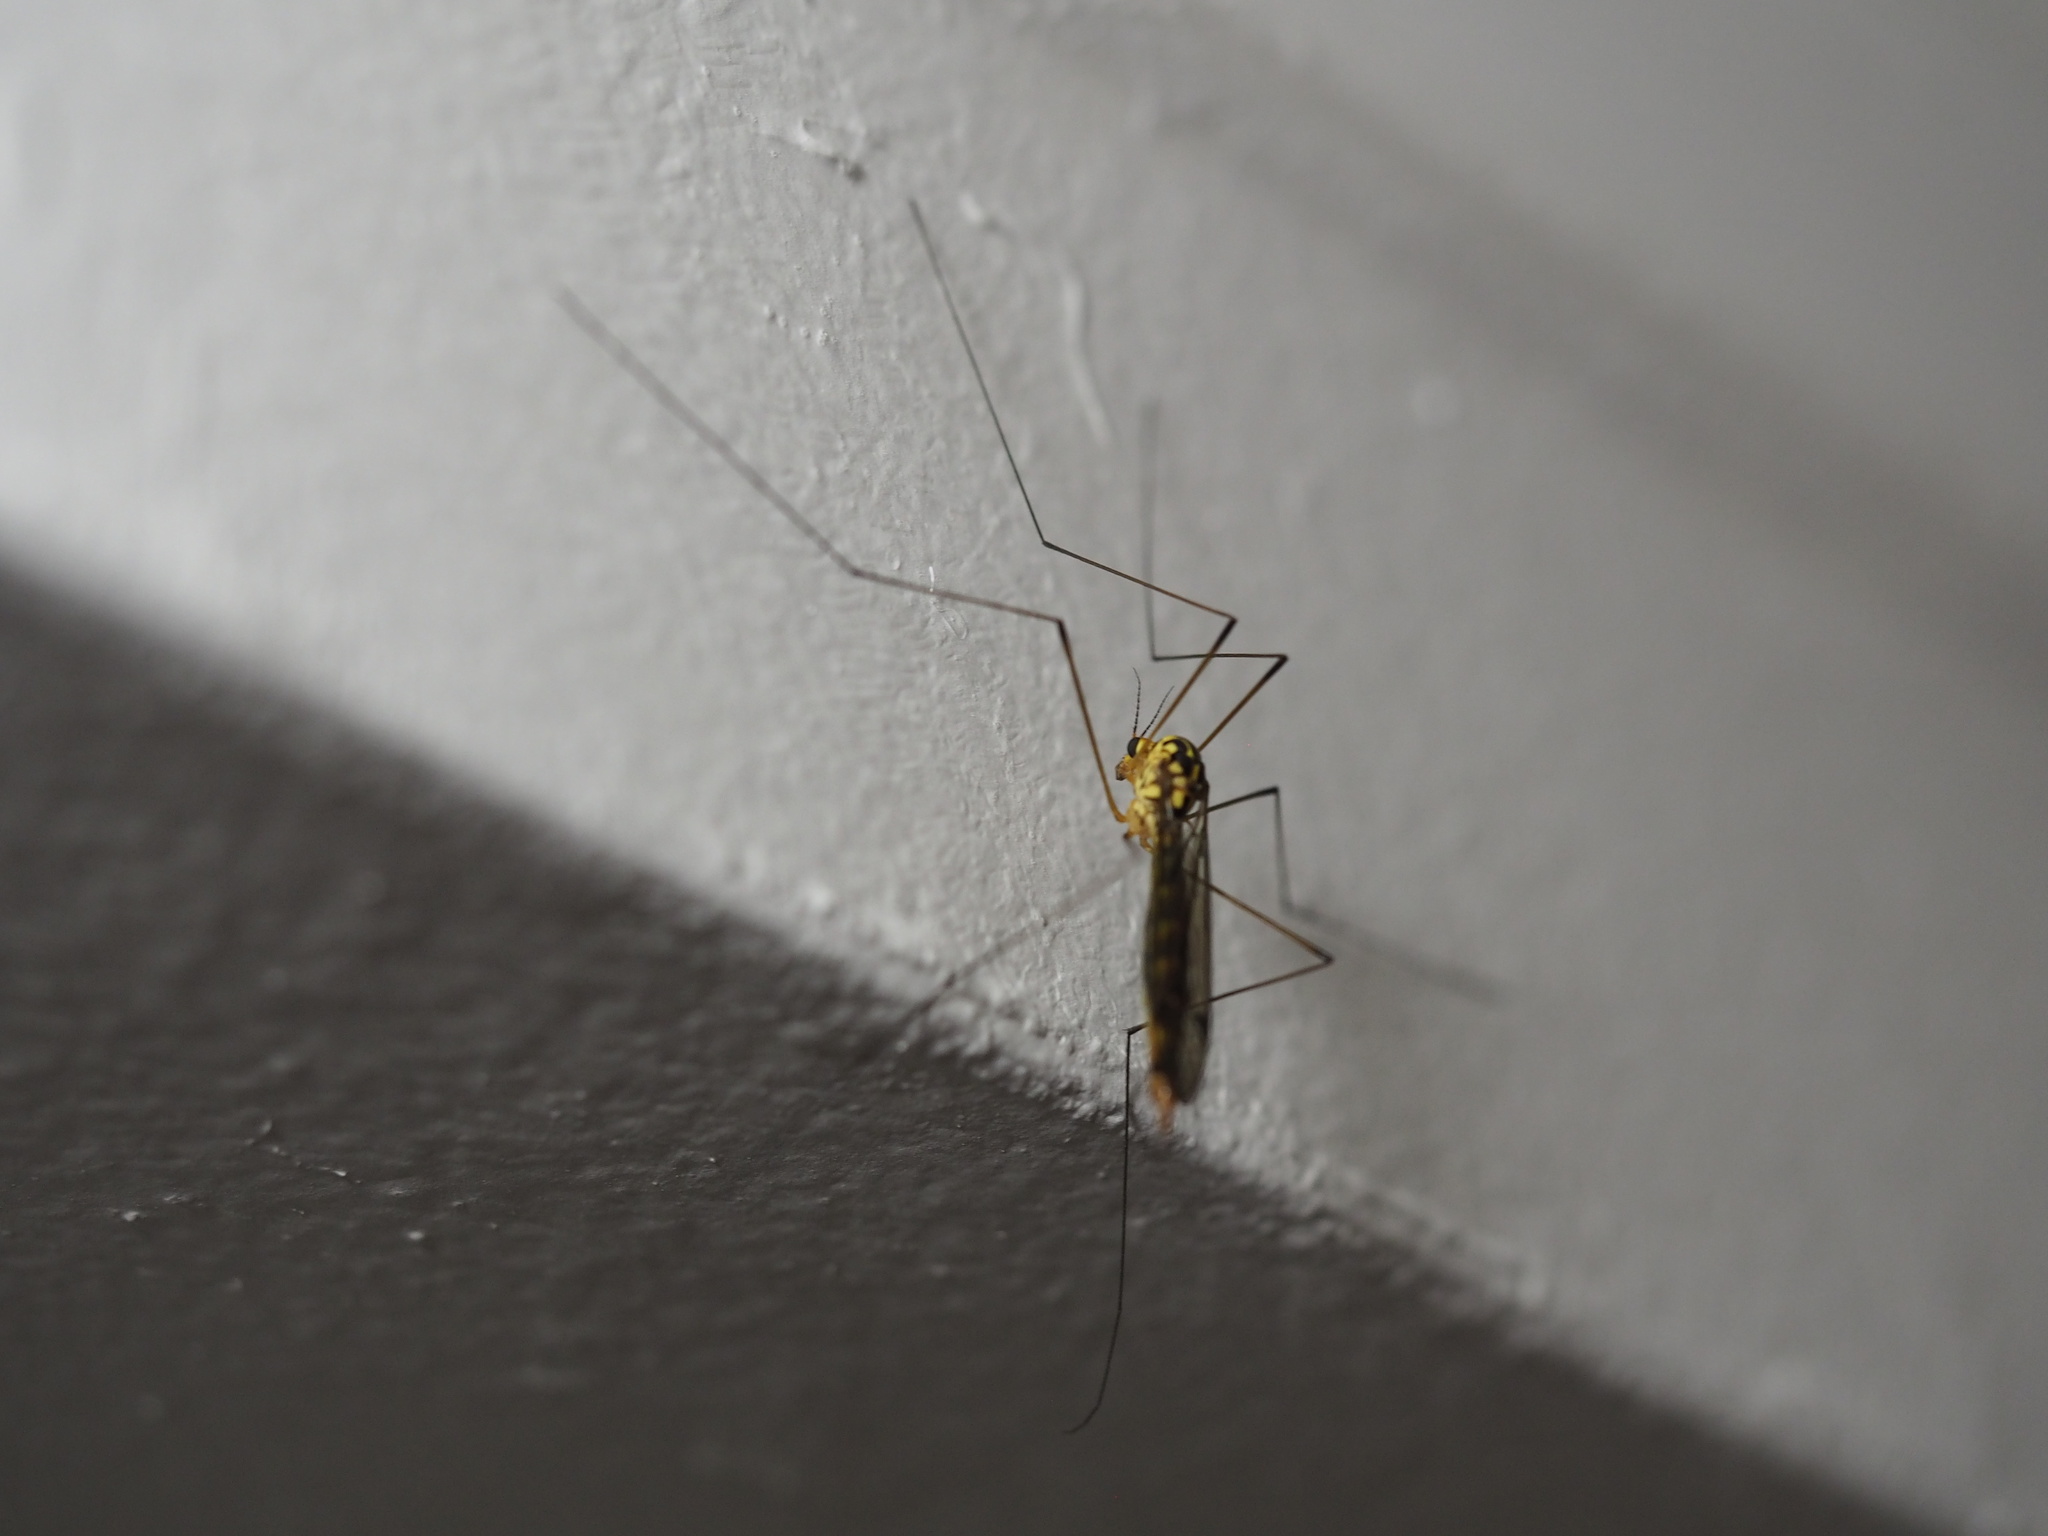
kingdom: Animalia
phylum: Arthropoda
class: Insecta
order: Diptera
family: Tipulidae
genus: Nephrotoma
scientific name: Nephrotoma
